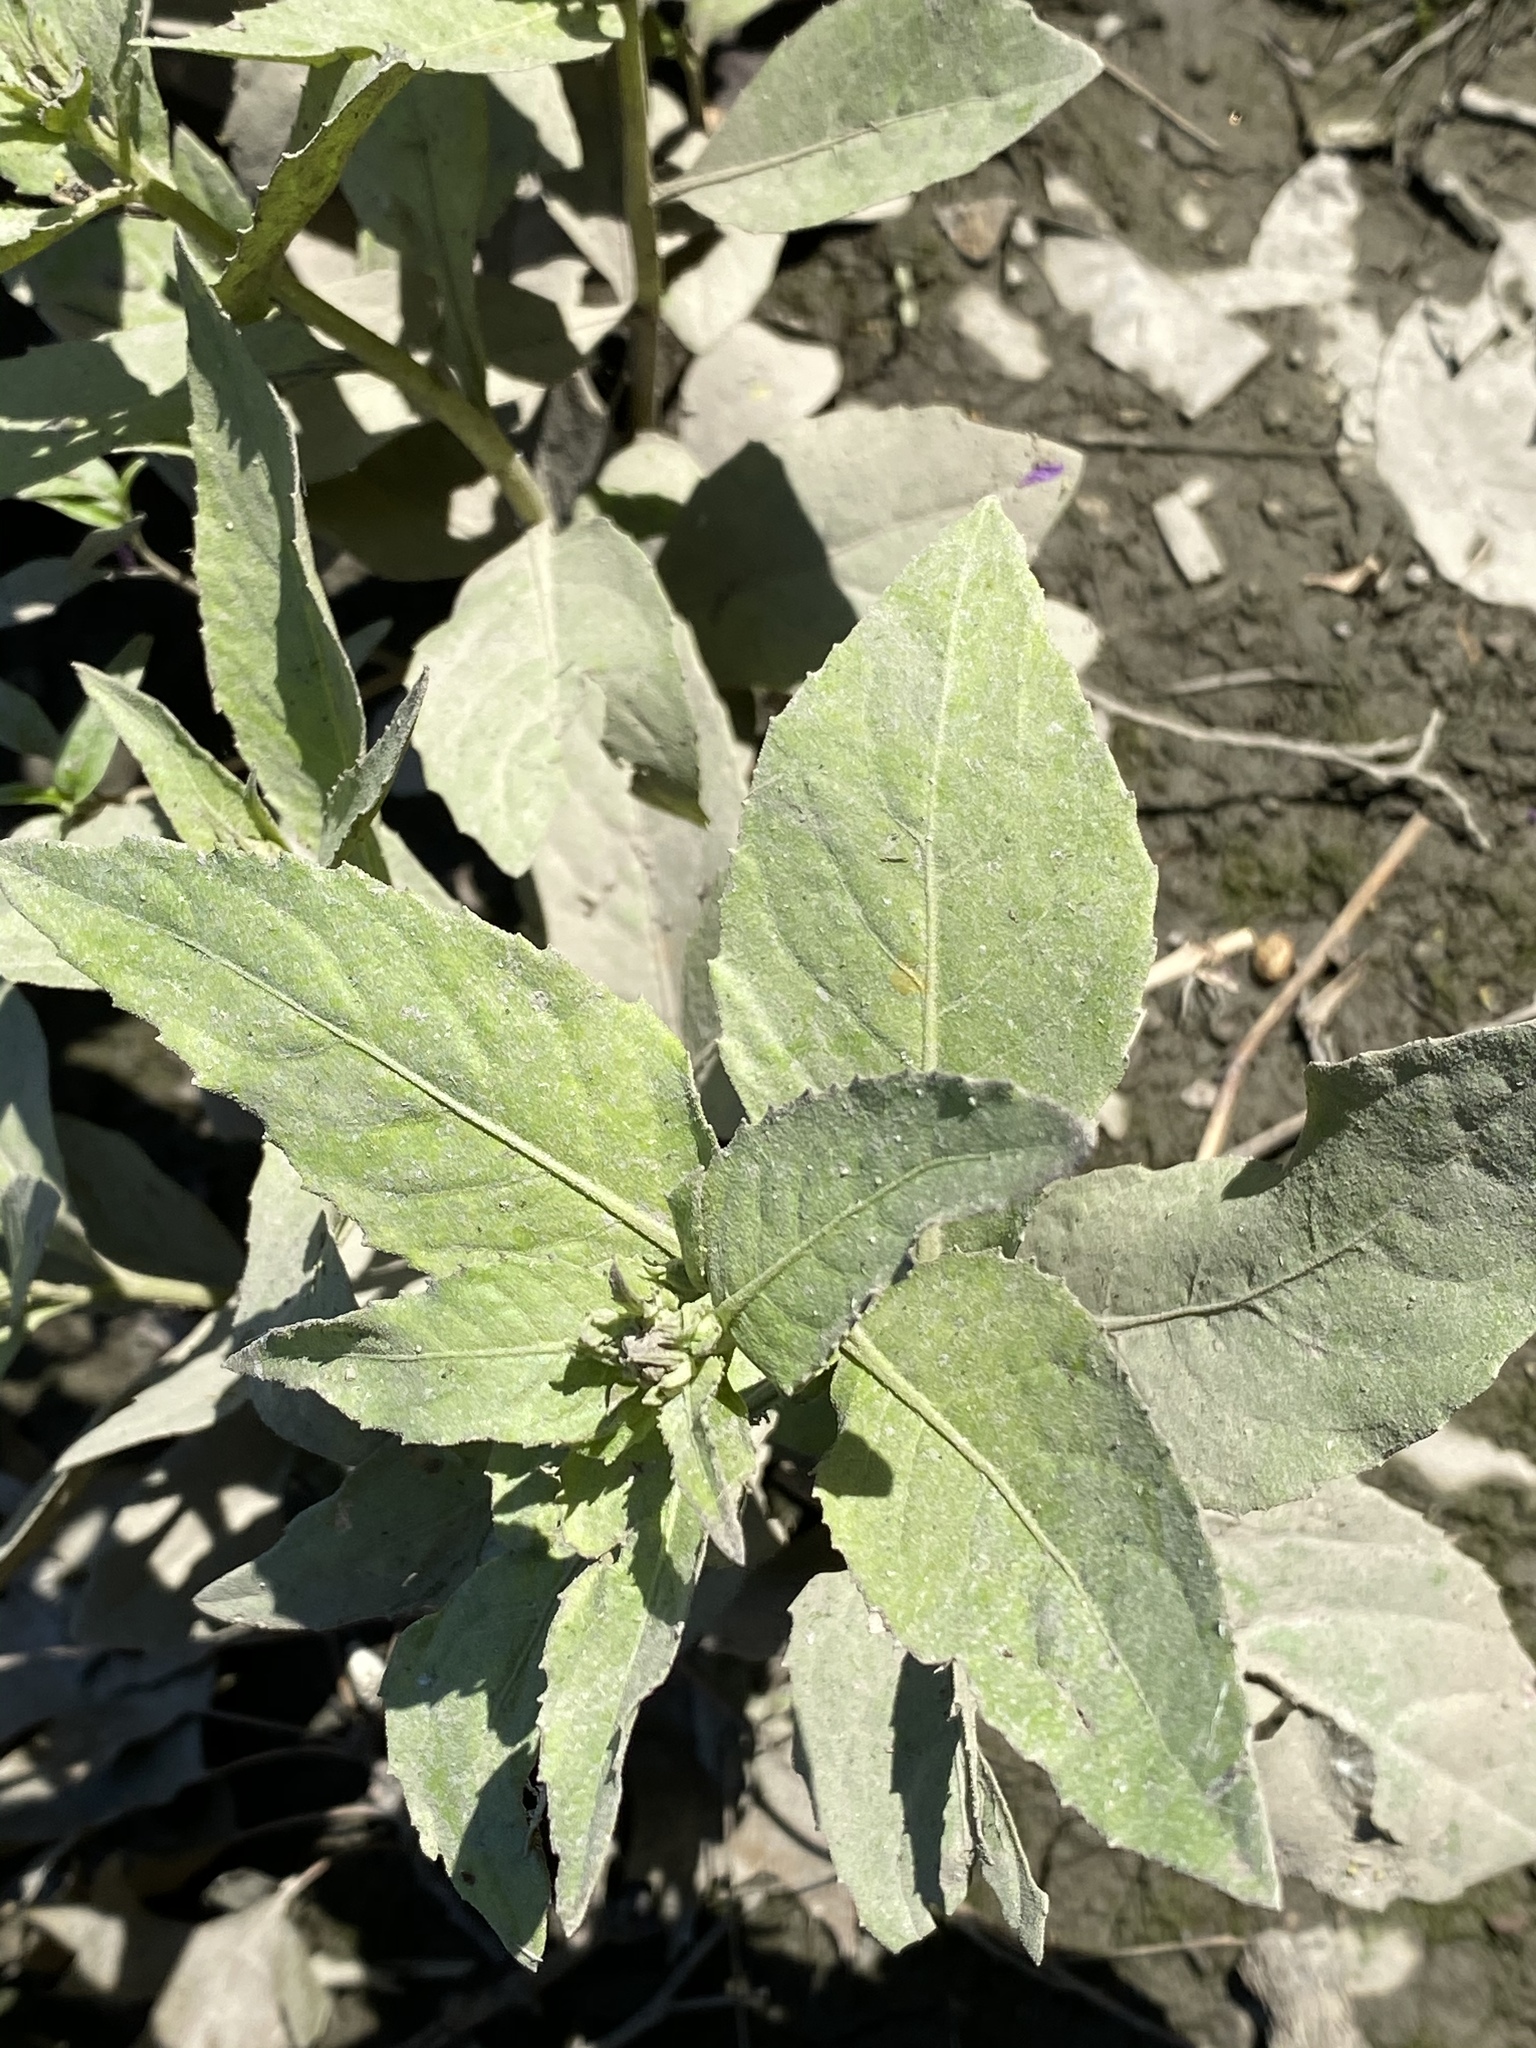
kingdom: Plantae
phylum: Tracheophyta
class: Magnoliopsida
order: Asterales
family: Asteraceae
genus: Pluchea
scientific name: Pluchea odorata
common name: Saltmarsh fleabane
